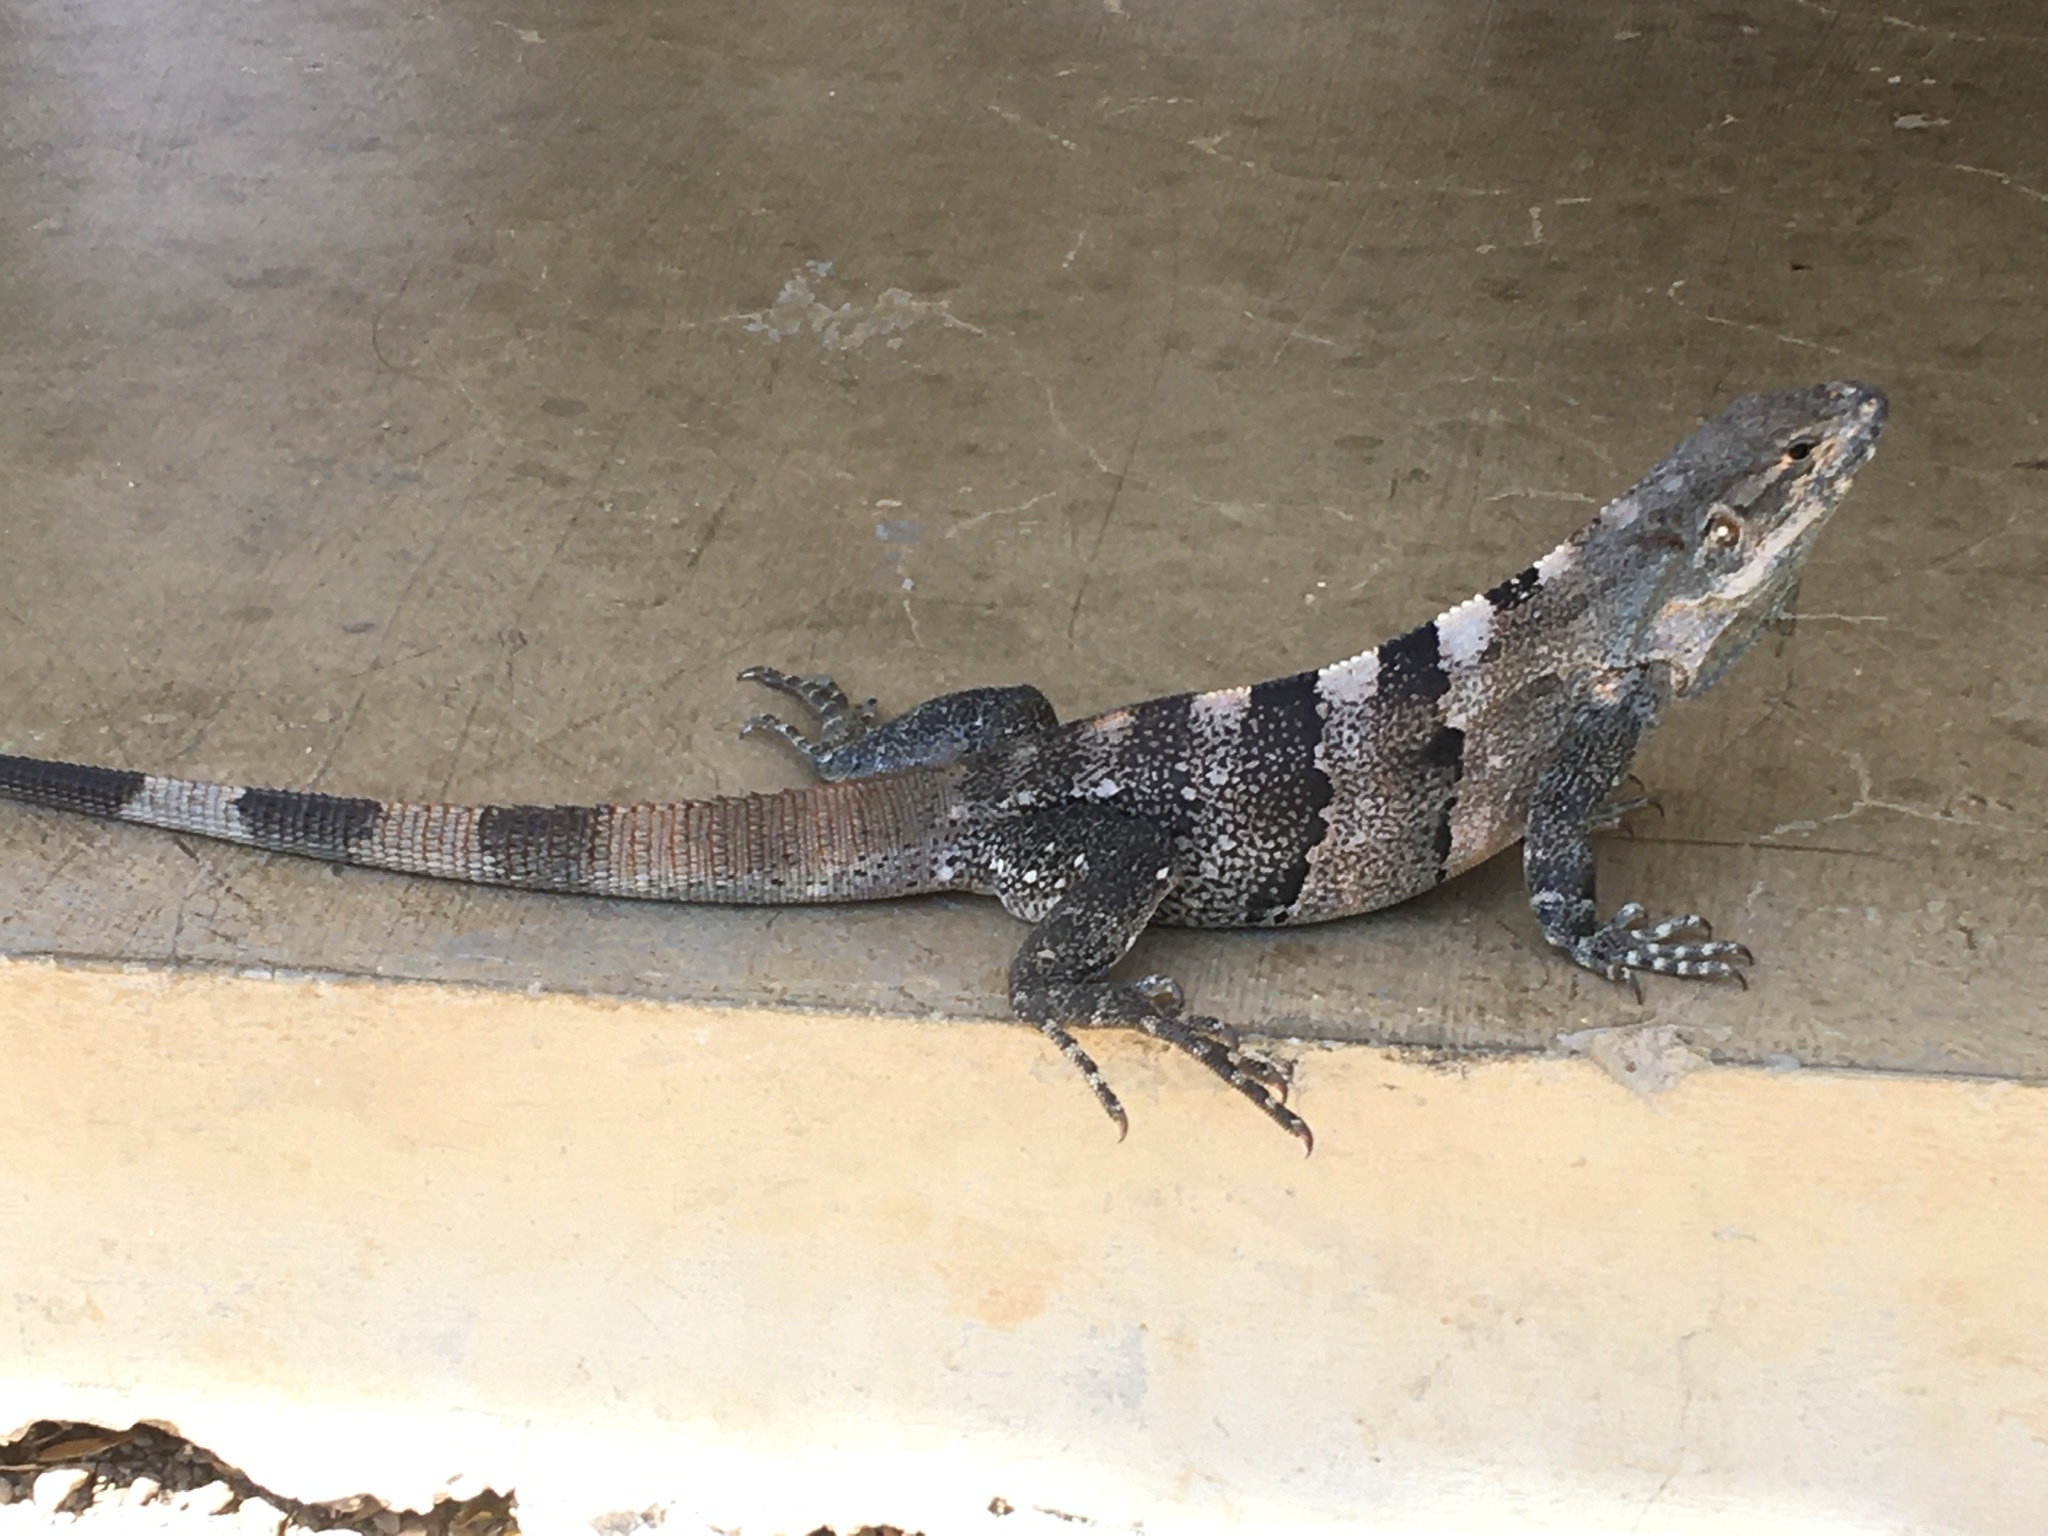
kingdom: Animalia
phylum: Chordata
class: Squamata
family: Iguanidae
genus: Ctenosaura
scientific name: Ctenosaura similis
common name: Black spiny-tailed iguana
